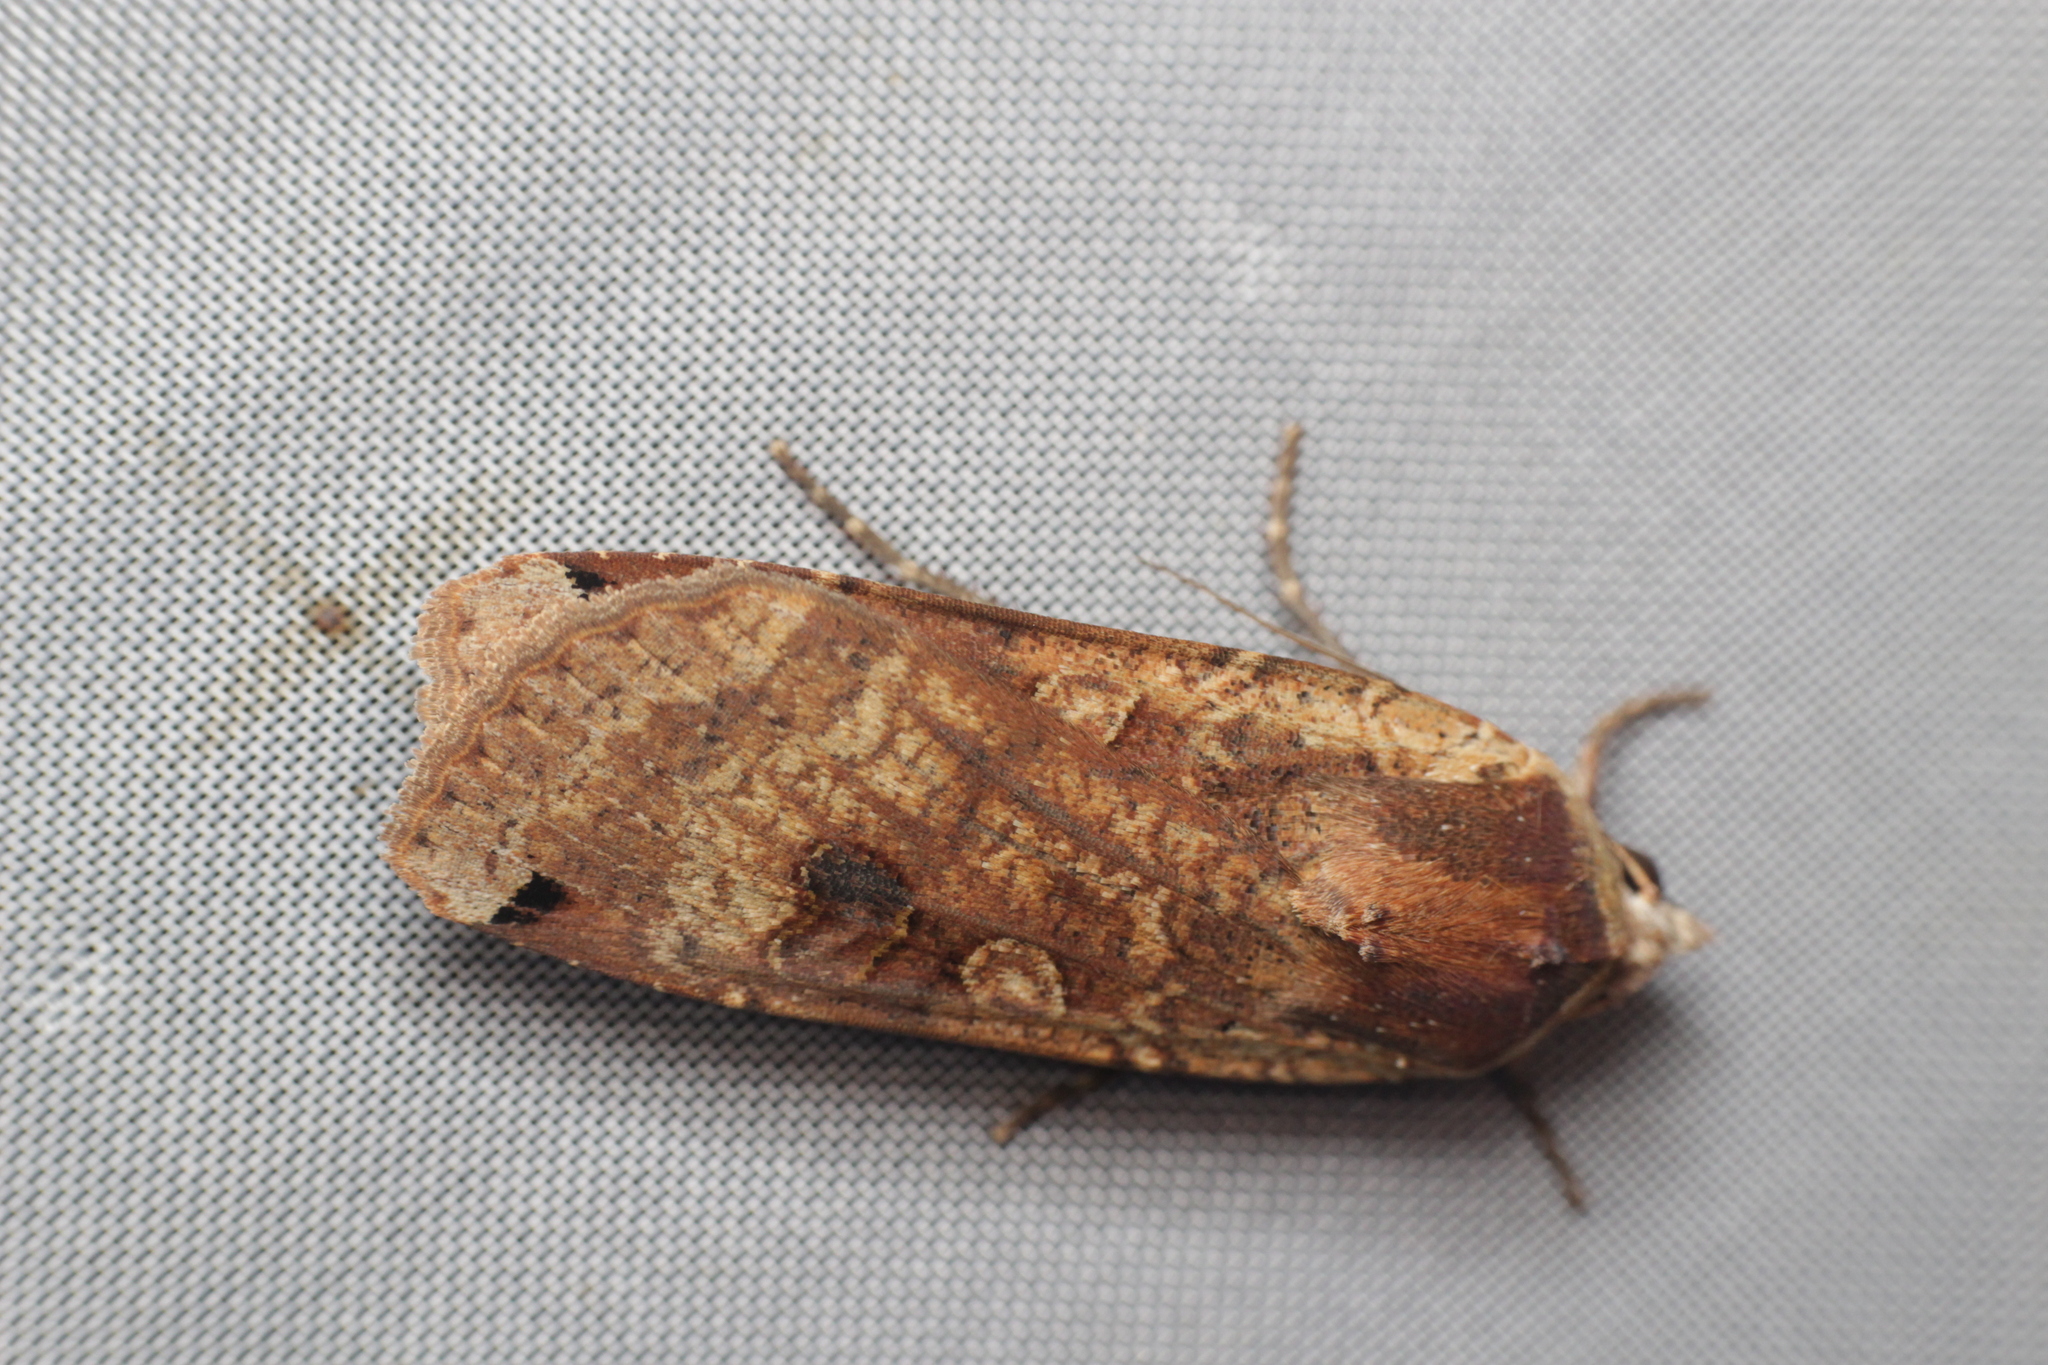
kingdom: Animalia
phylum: Arthropoda
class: Insecta
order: Lepidoptera
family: Noctuidae
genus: Noctua
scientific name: Noctua pronuba
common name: Large yellow underwing
